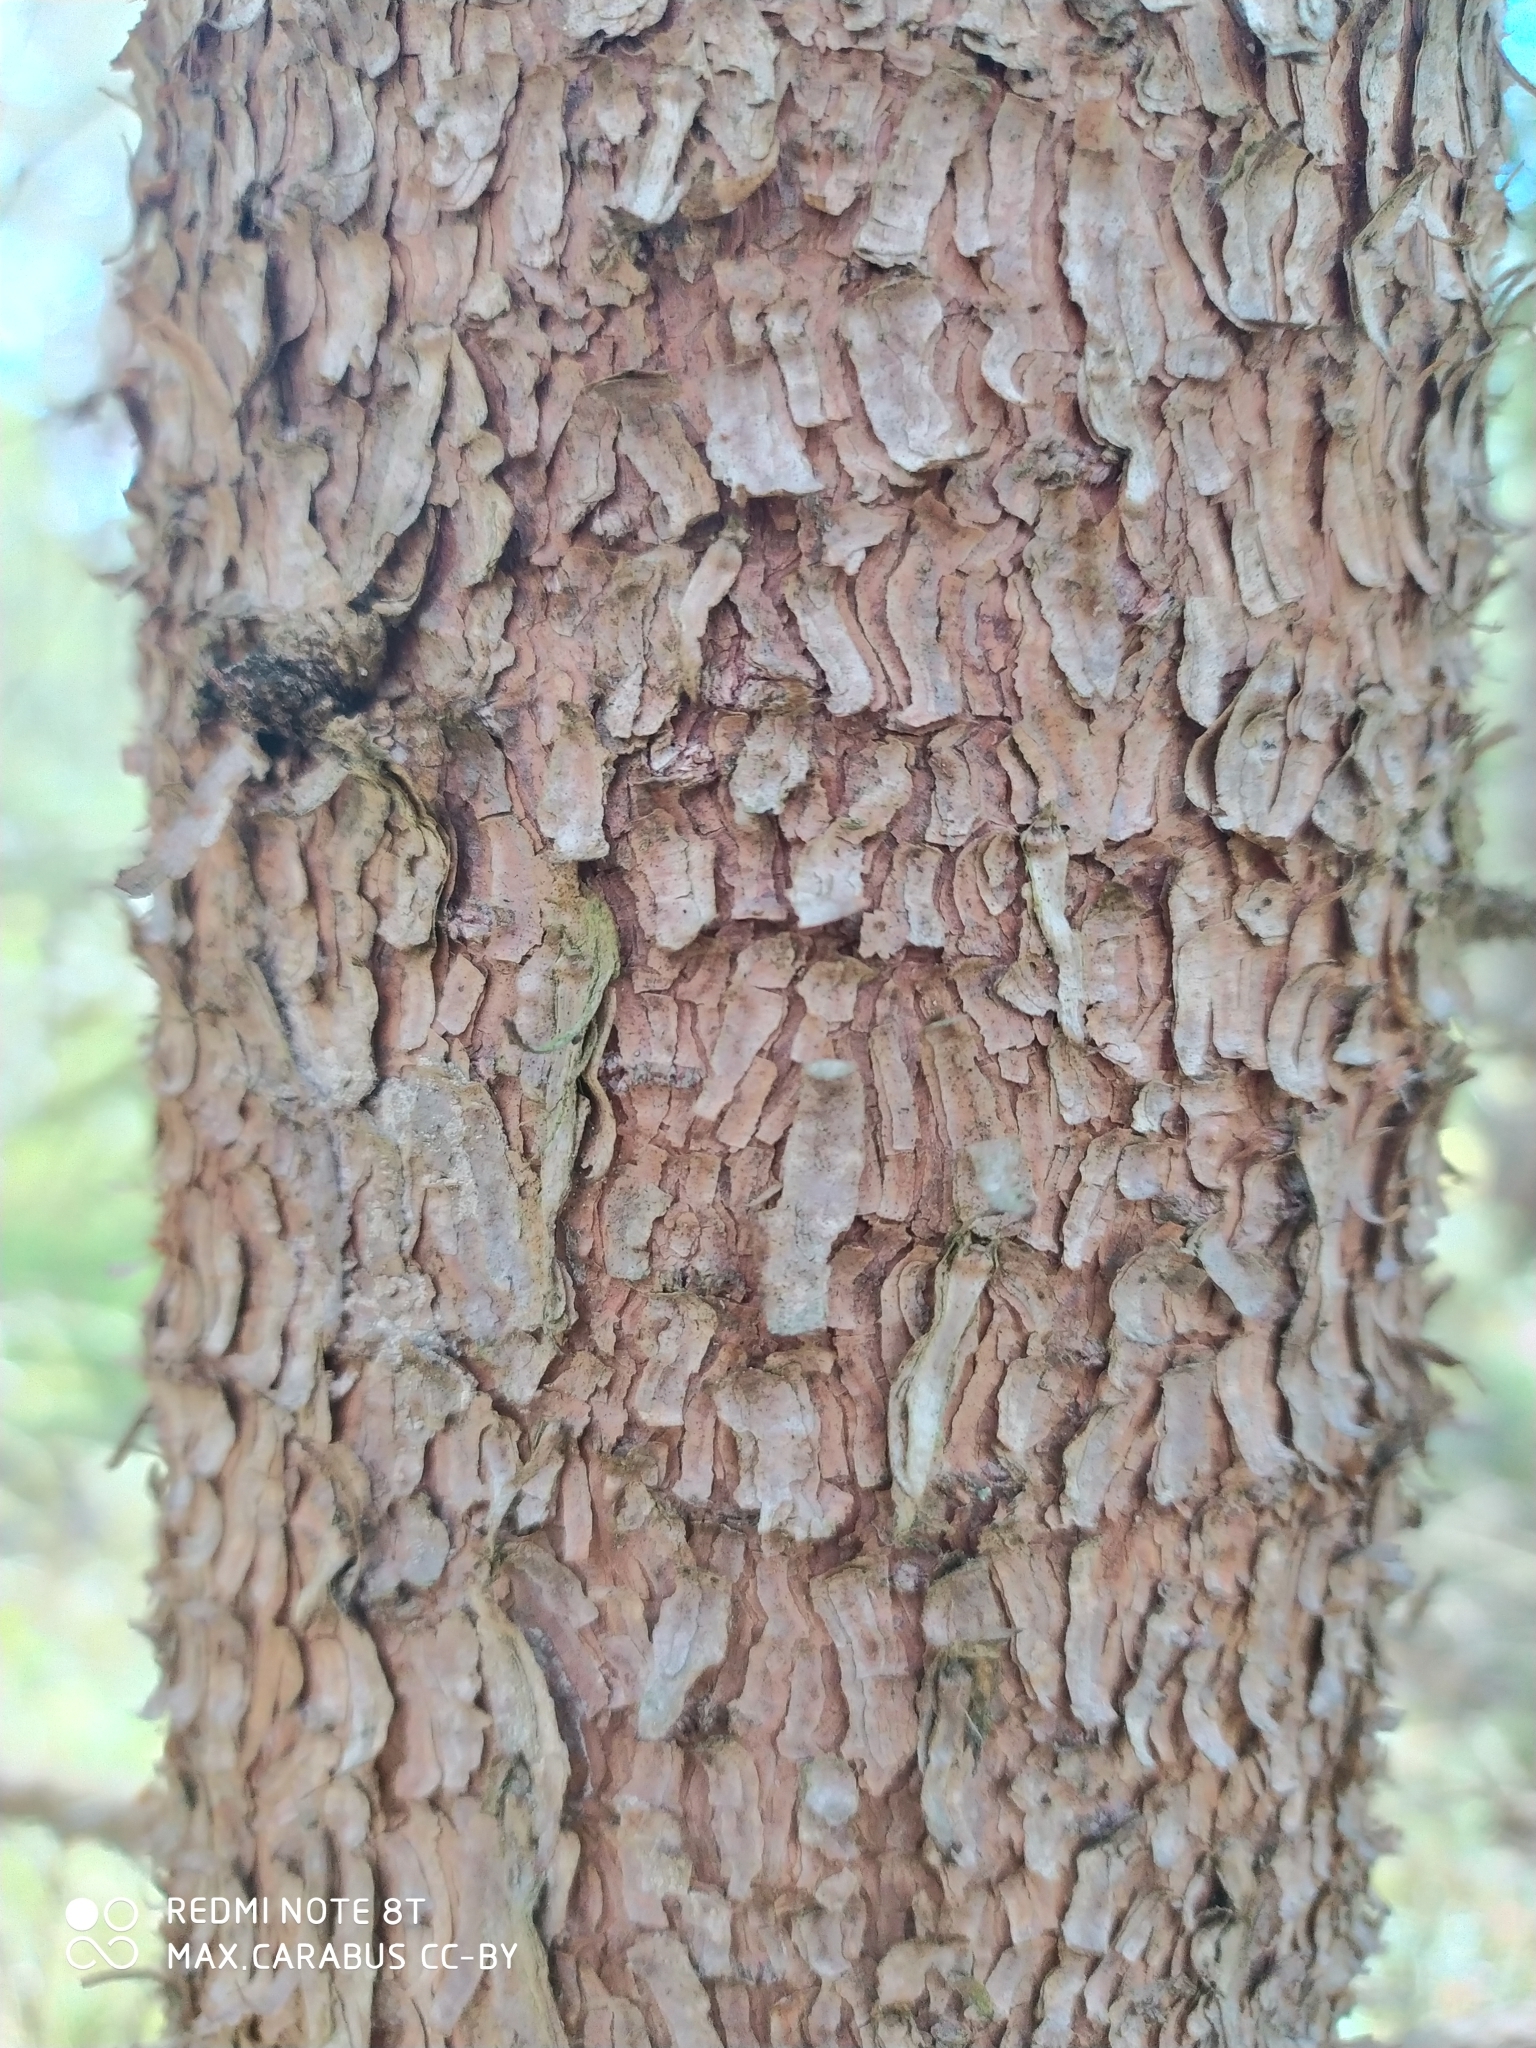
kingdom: Plantae
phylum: Tracheophyta
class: Pinopsida
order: Pinales
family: Pinaceae
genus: Picea
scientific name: Picea abies
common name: Norway spruce
